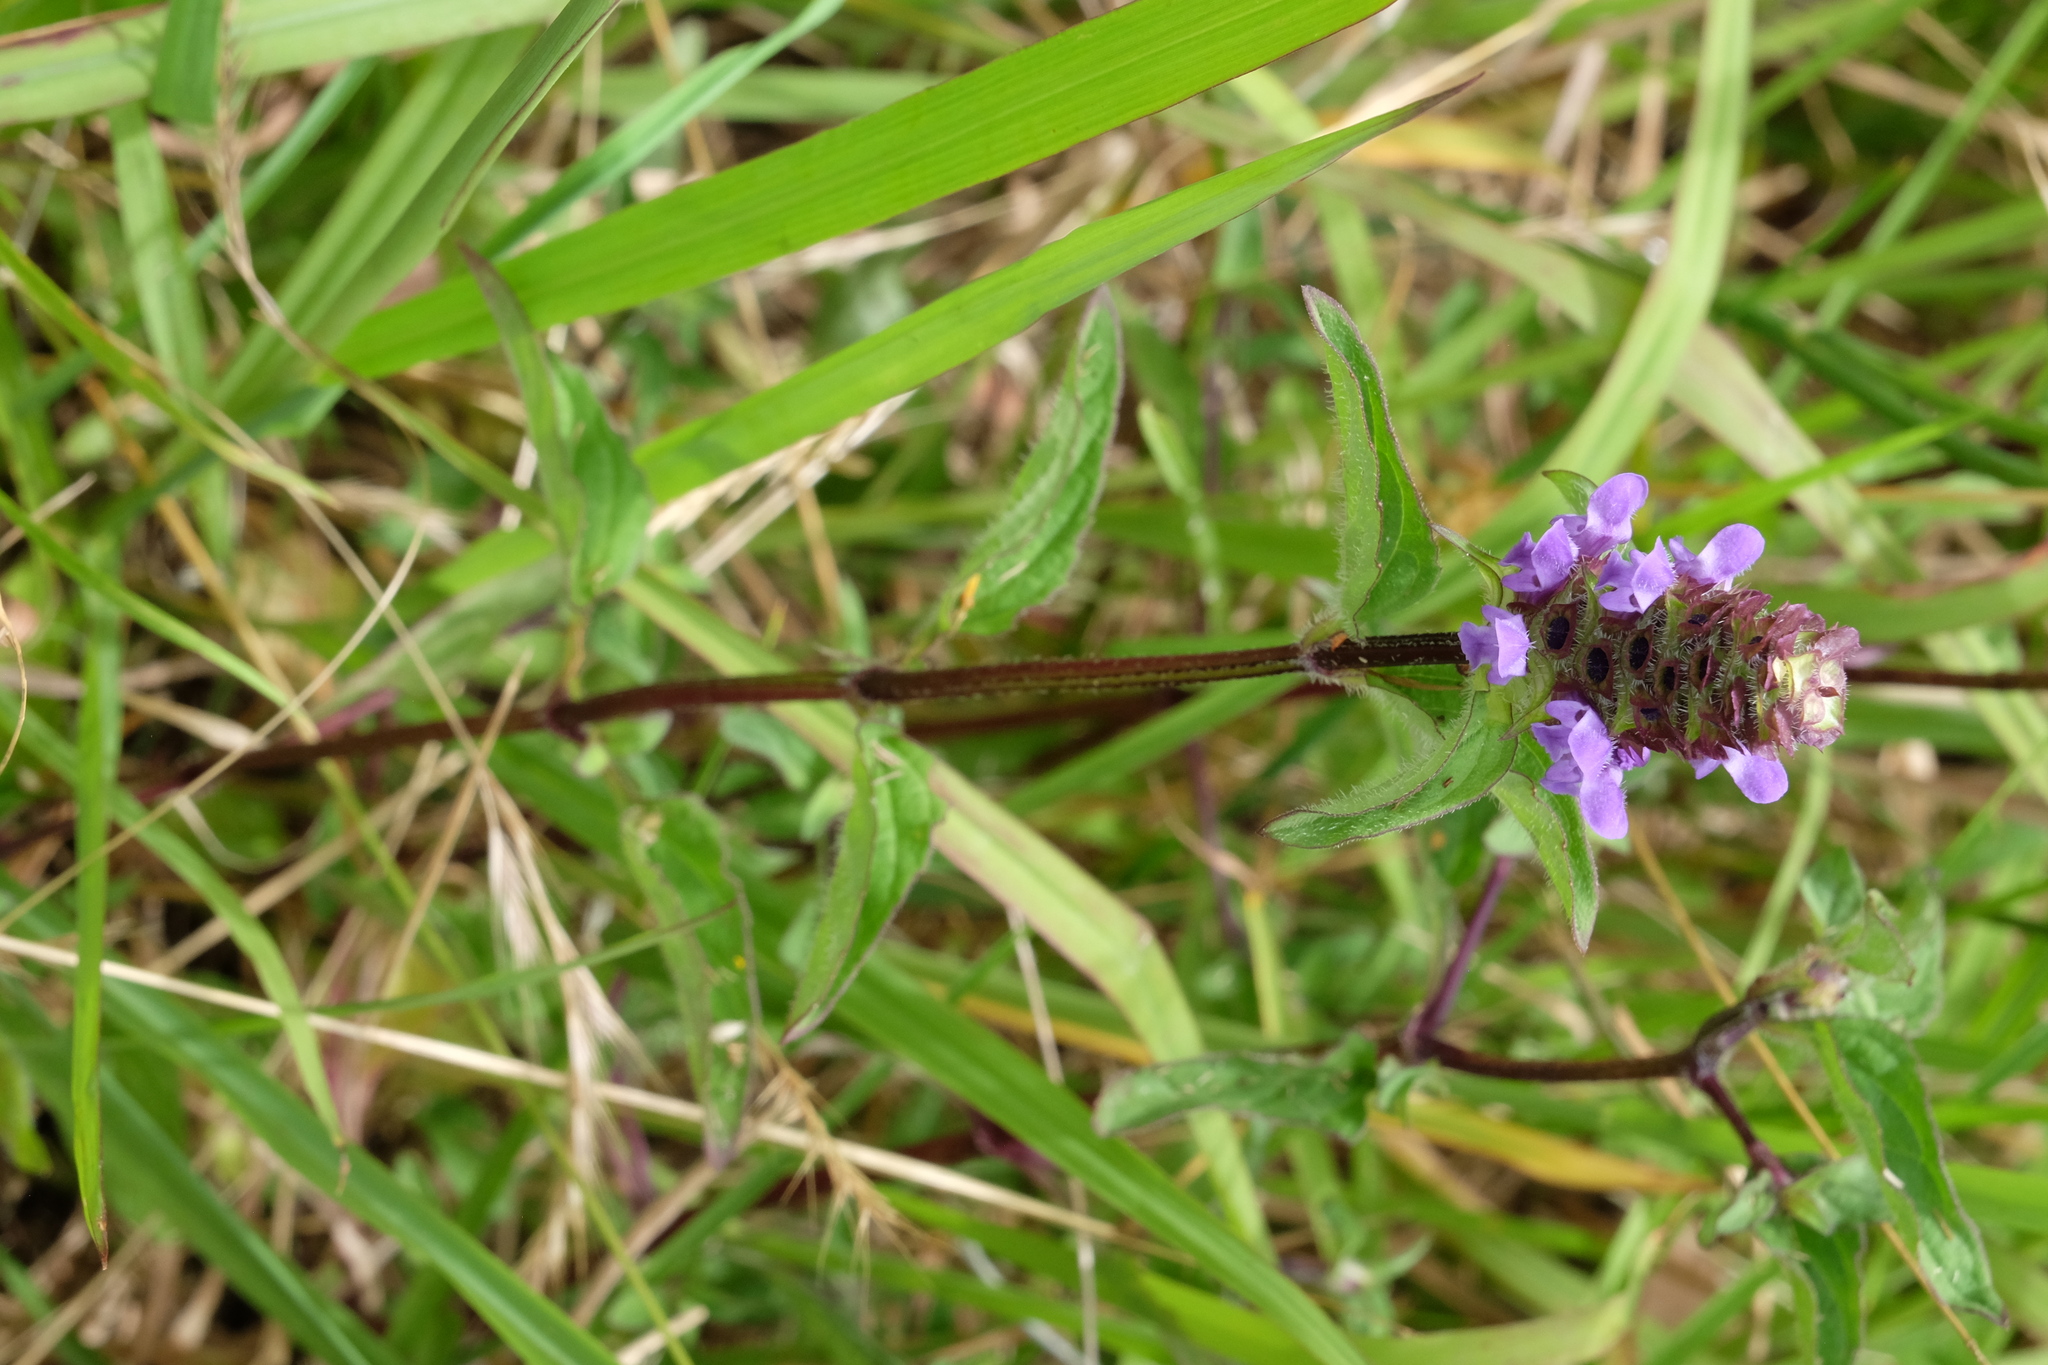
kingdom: Plantae
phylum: Tracheophyta
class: Magnoliopsida
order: Lamiales
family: Lamiaceae
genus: Prunella
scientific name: Prunella vulgaris
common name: Heal-all
